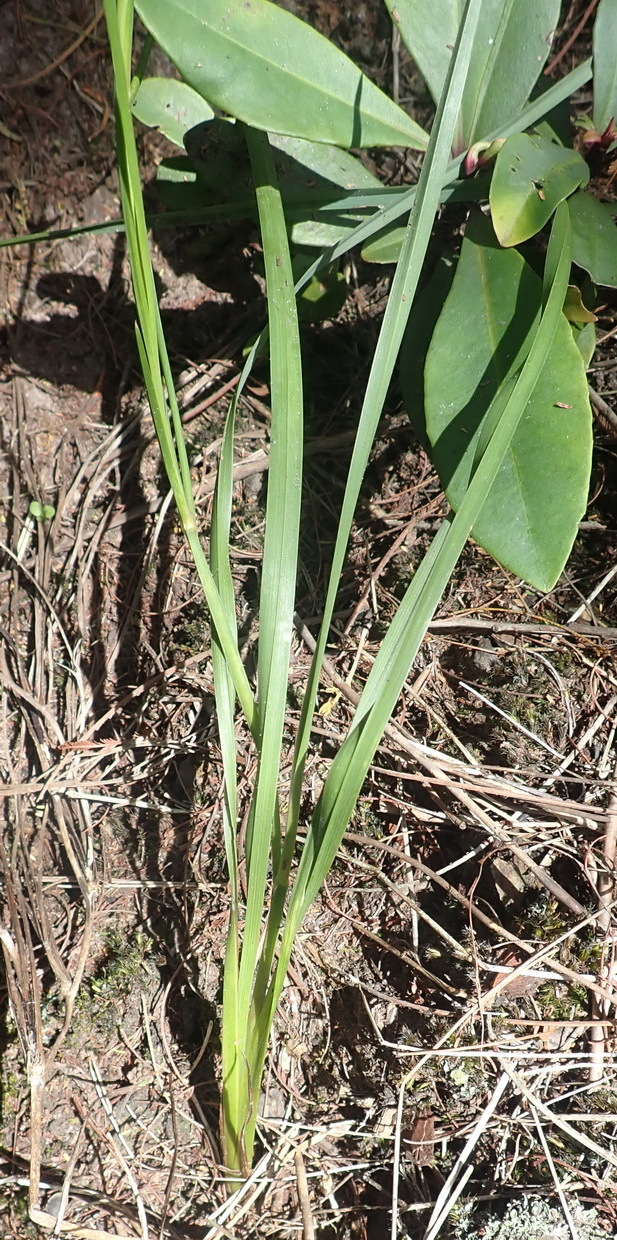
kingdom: Plantae
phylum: Tracheophyta
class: Liliopsida
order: Asparagales
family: Asphodelaceae
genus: Caesia
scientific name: Caesia contorta
